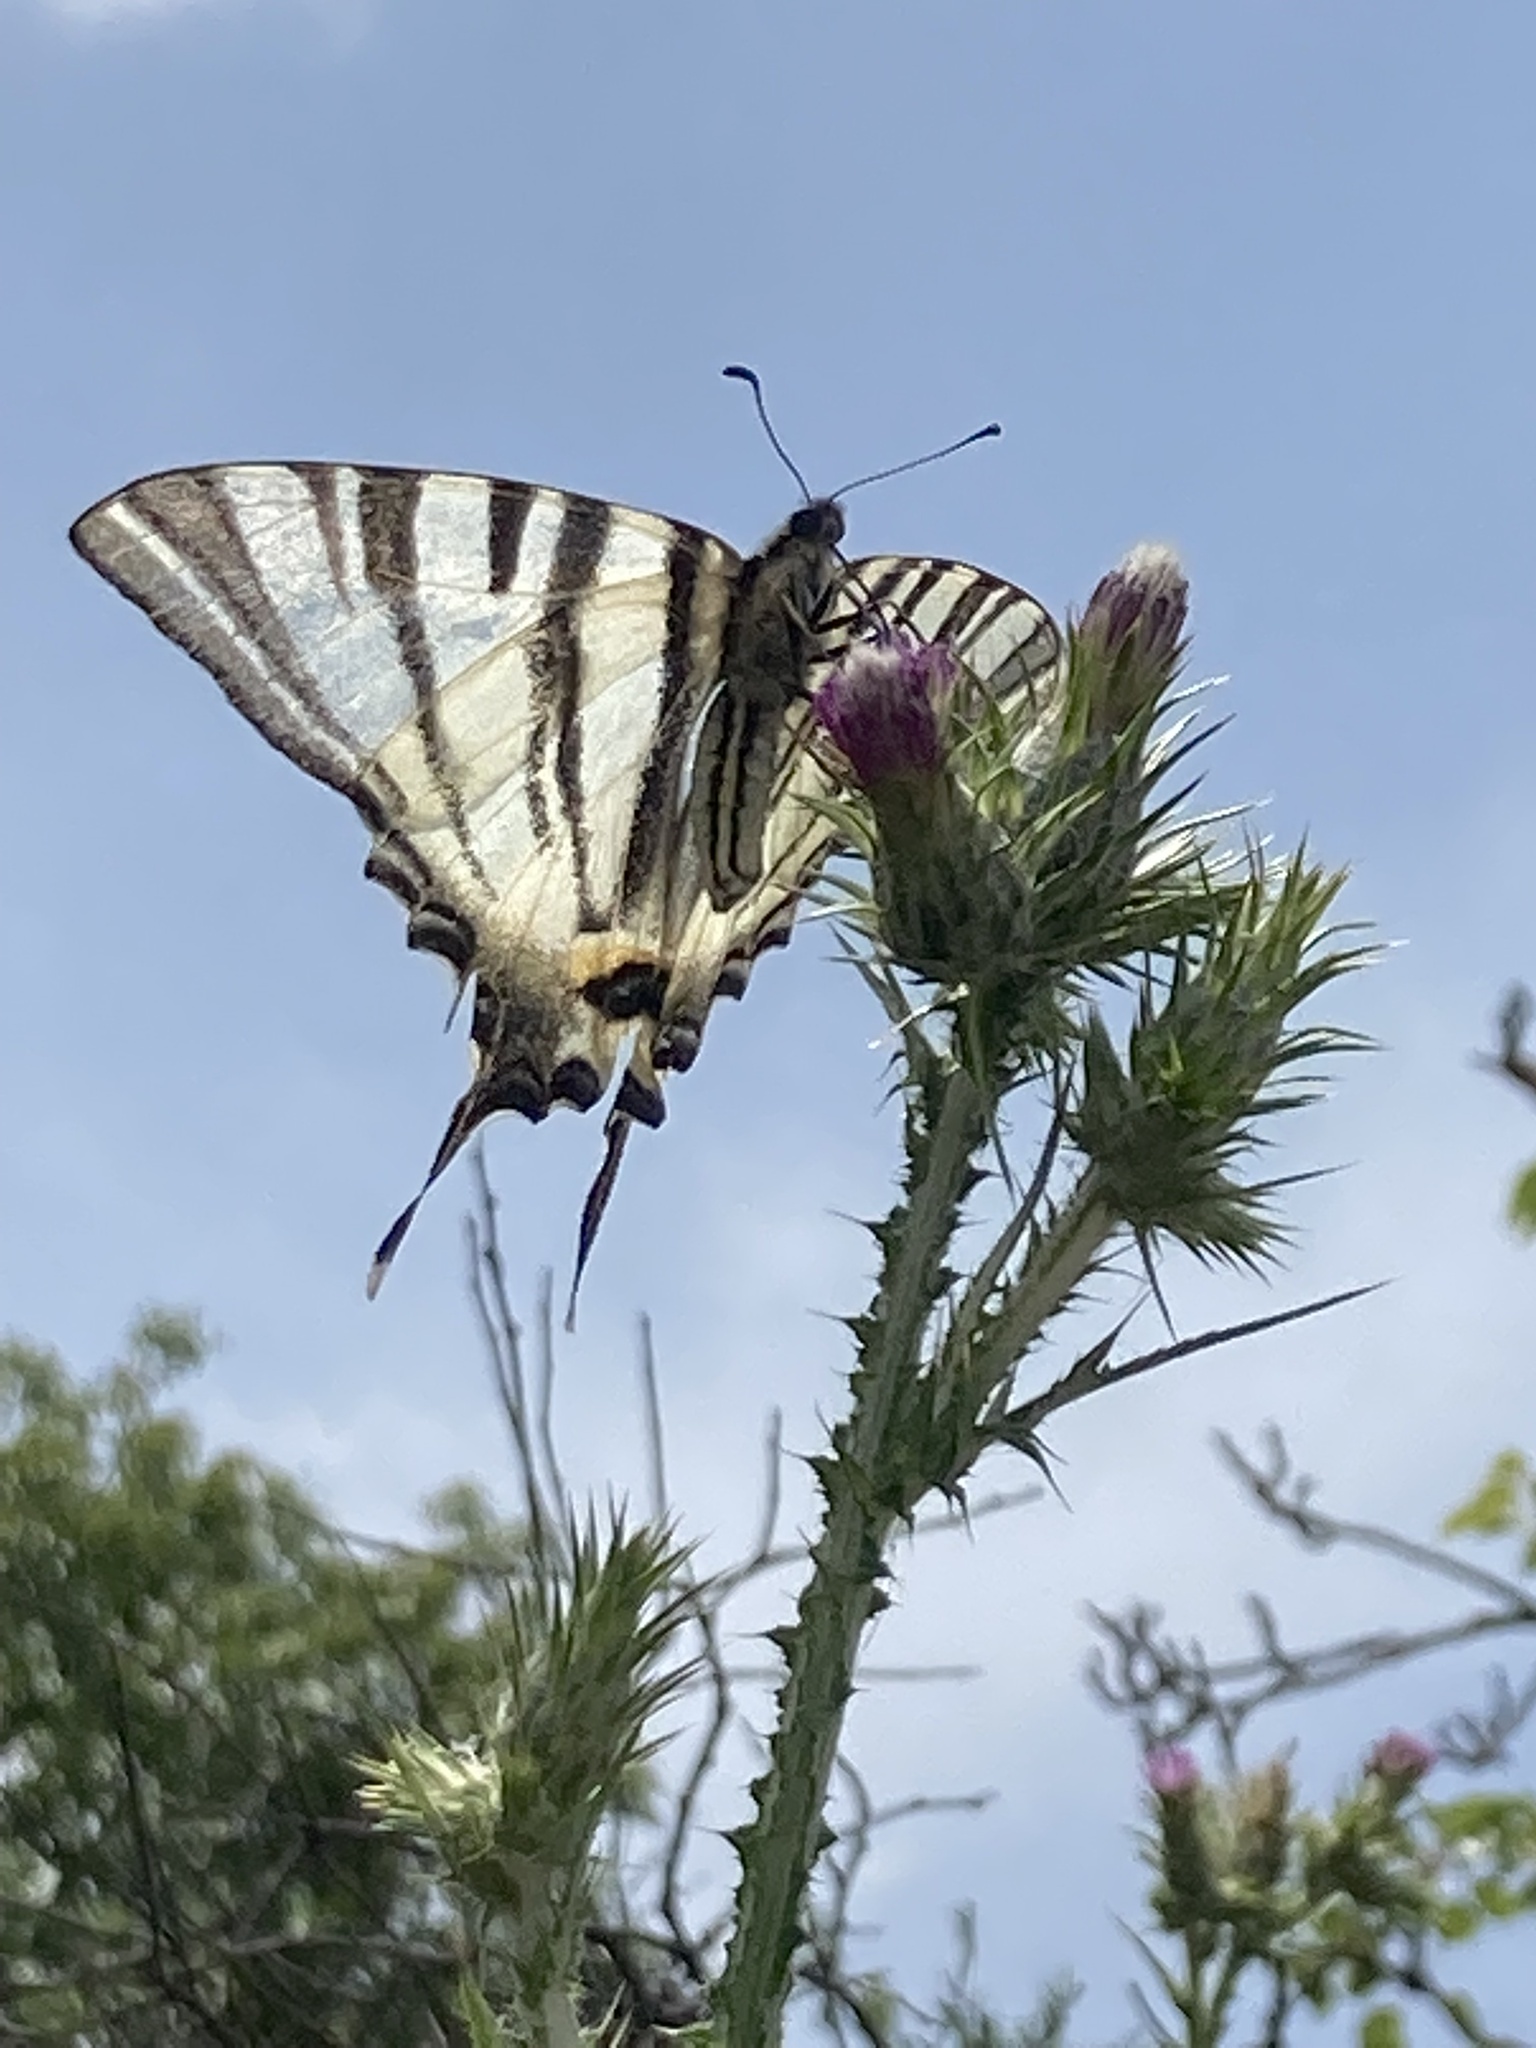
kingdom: Animalia
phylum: Arthropoda
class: Insecta
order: Lepidoptera
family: Papilionidae
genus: Iphiclides
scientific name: Iphiclides podalirius
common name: Scarce swallowtail
